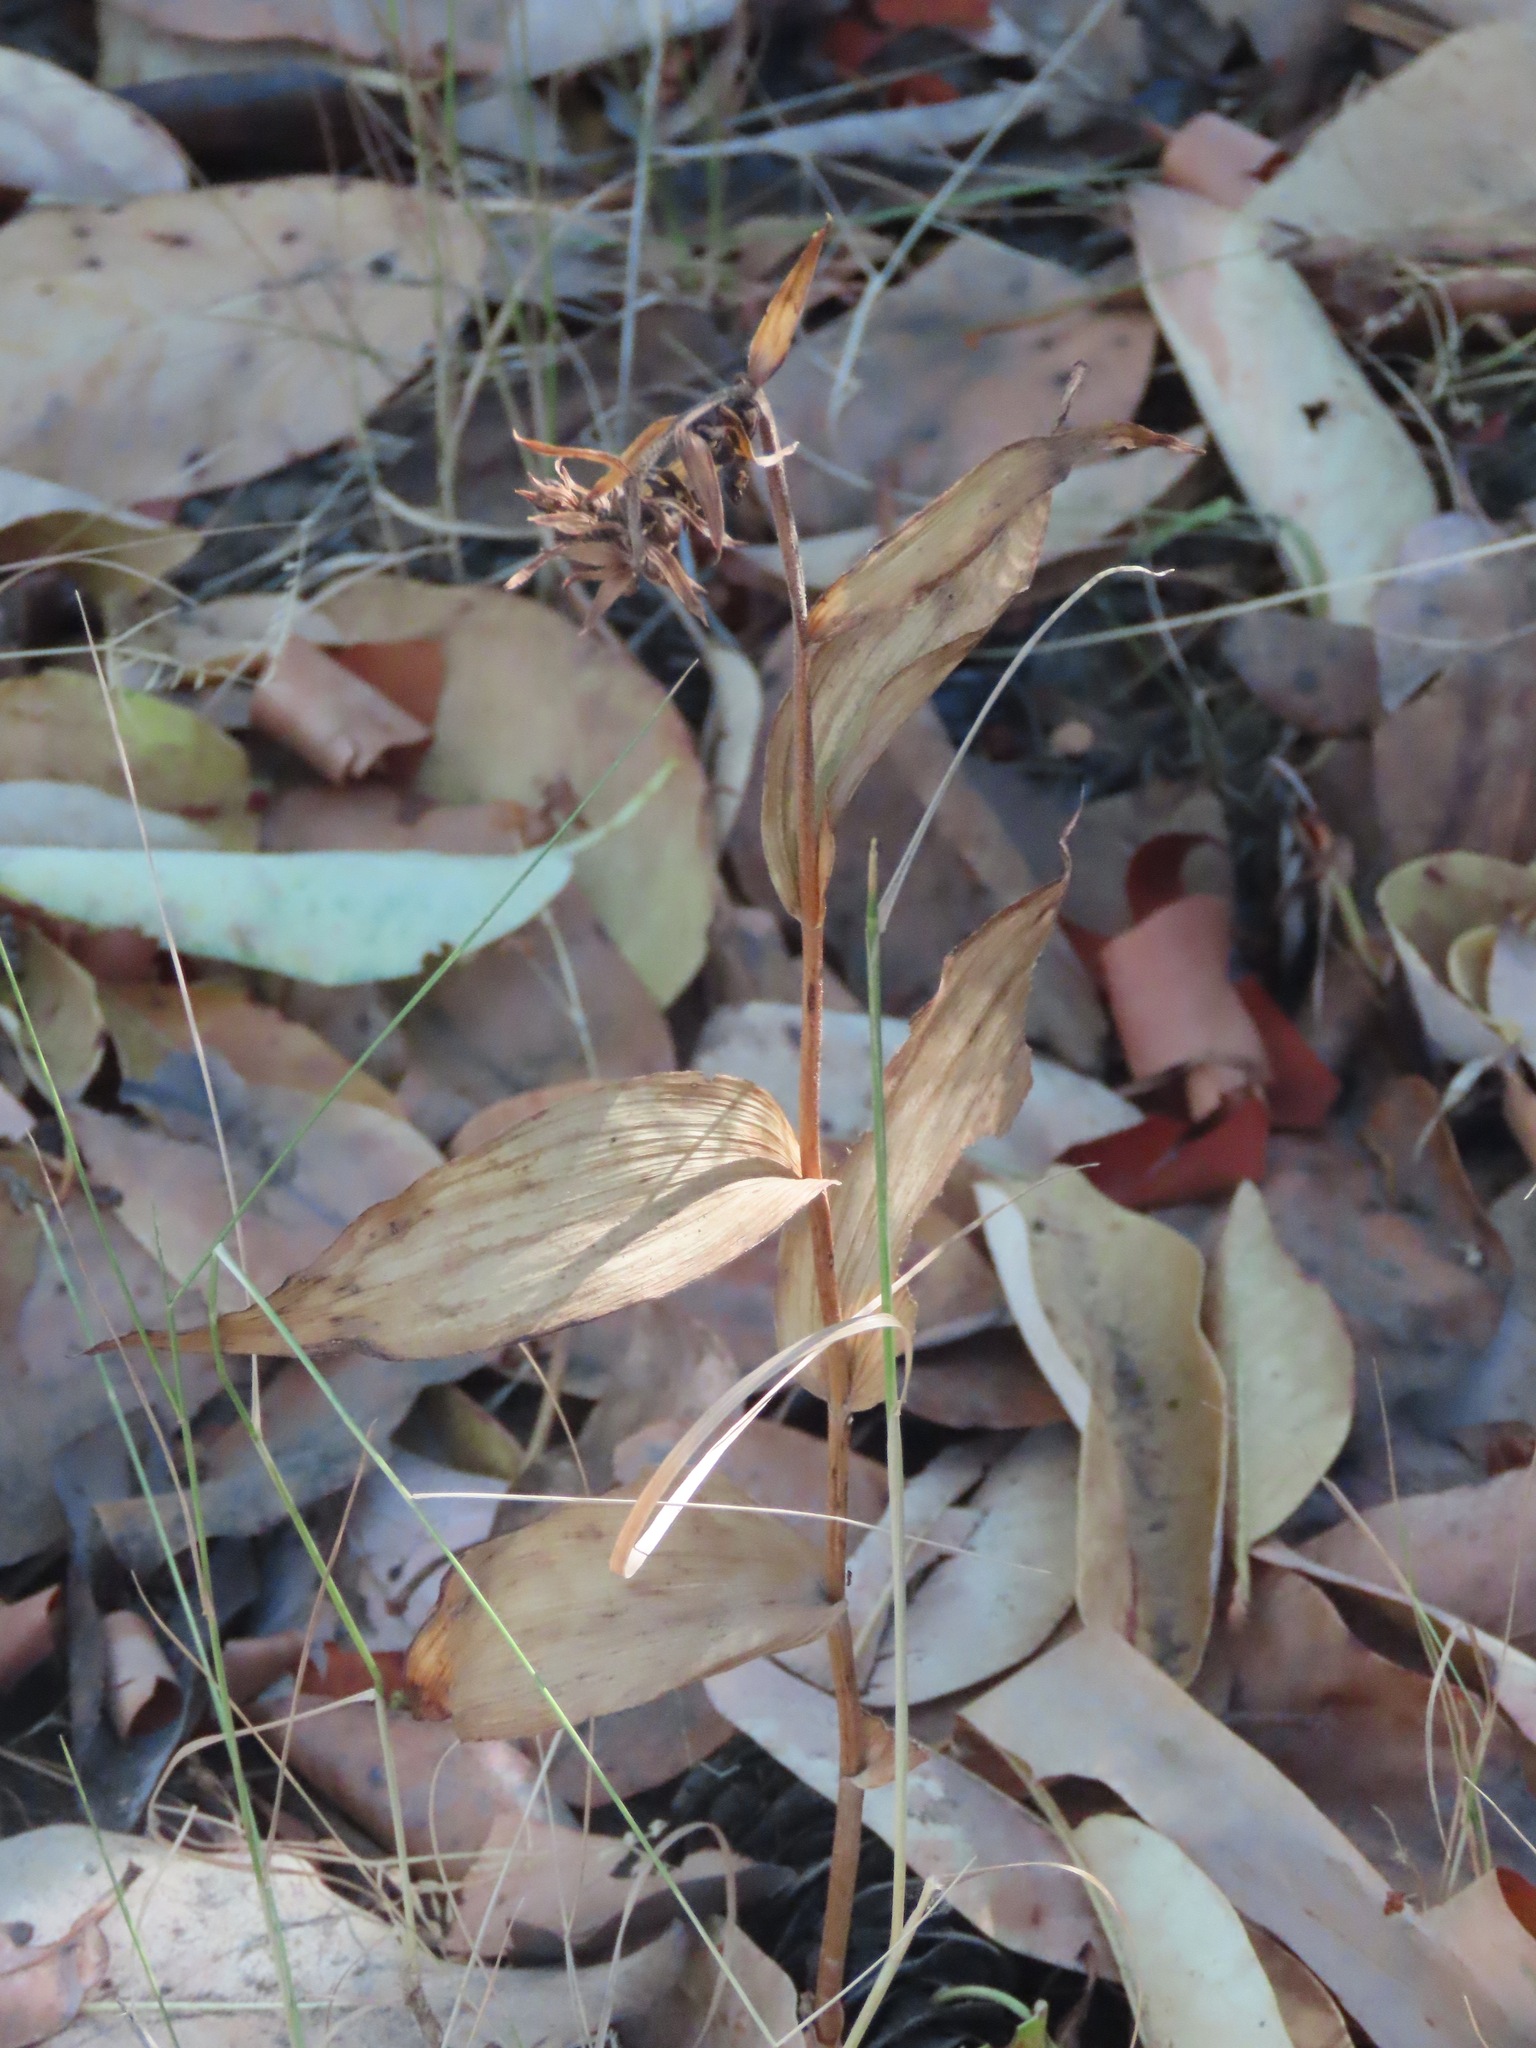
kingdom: Plantae
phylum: Tracheophyta
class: Liliopsida
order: Asparagales
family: Orchidaceae
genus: Epipactis
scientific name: Epipactis helleborine
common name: Broad-leaved helleborine
